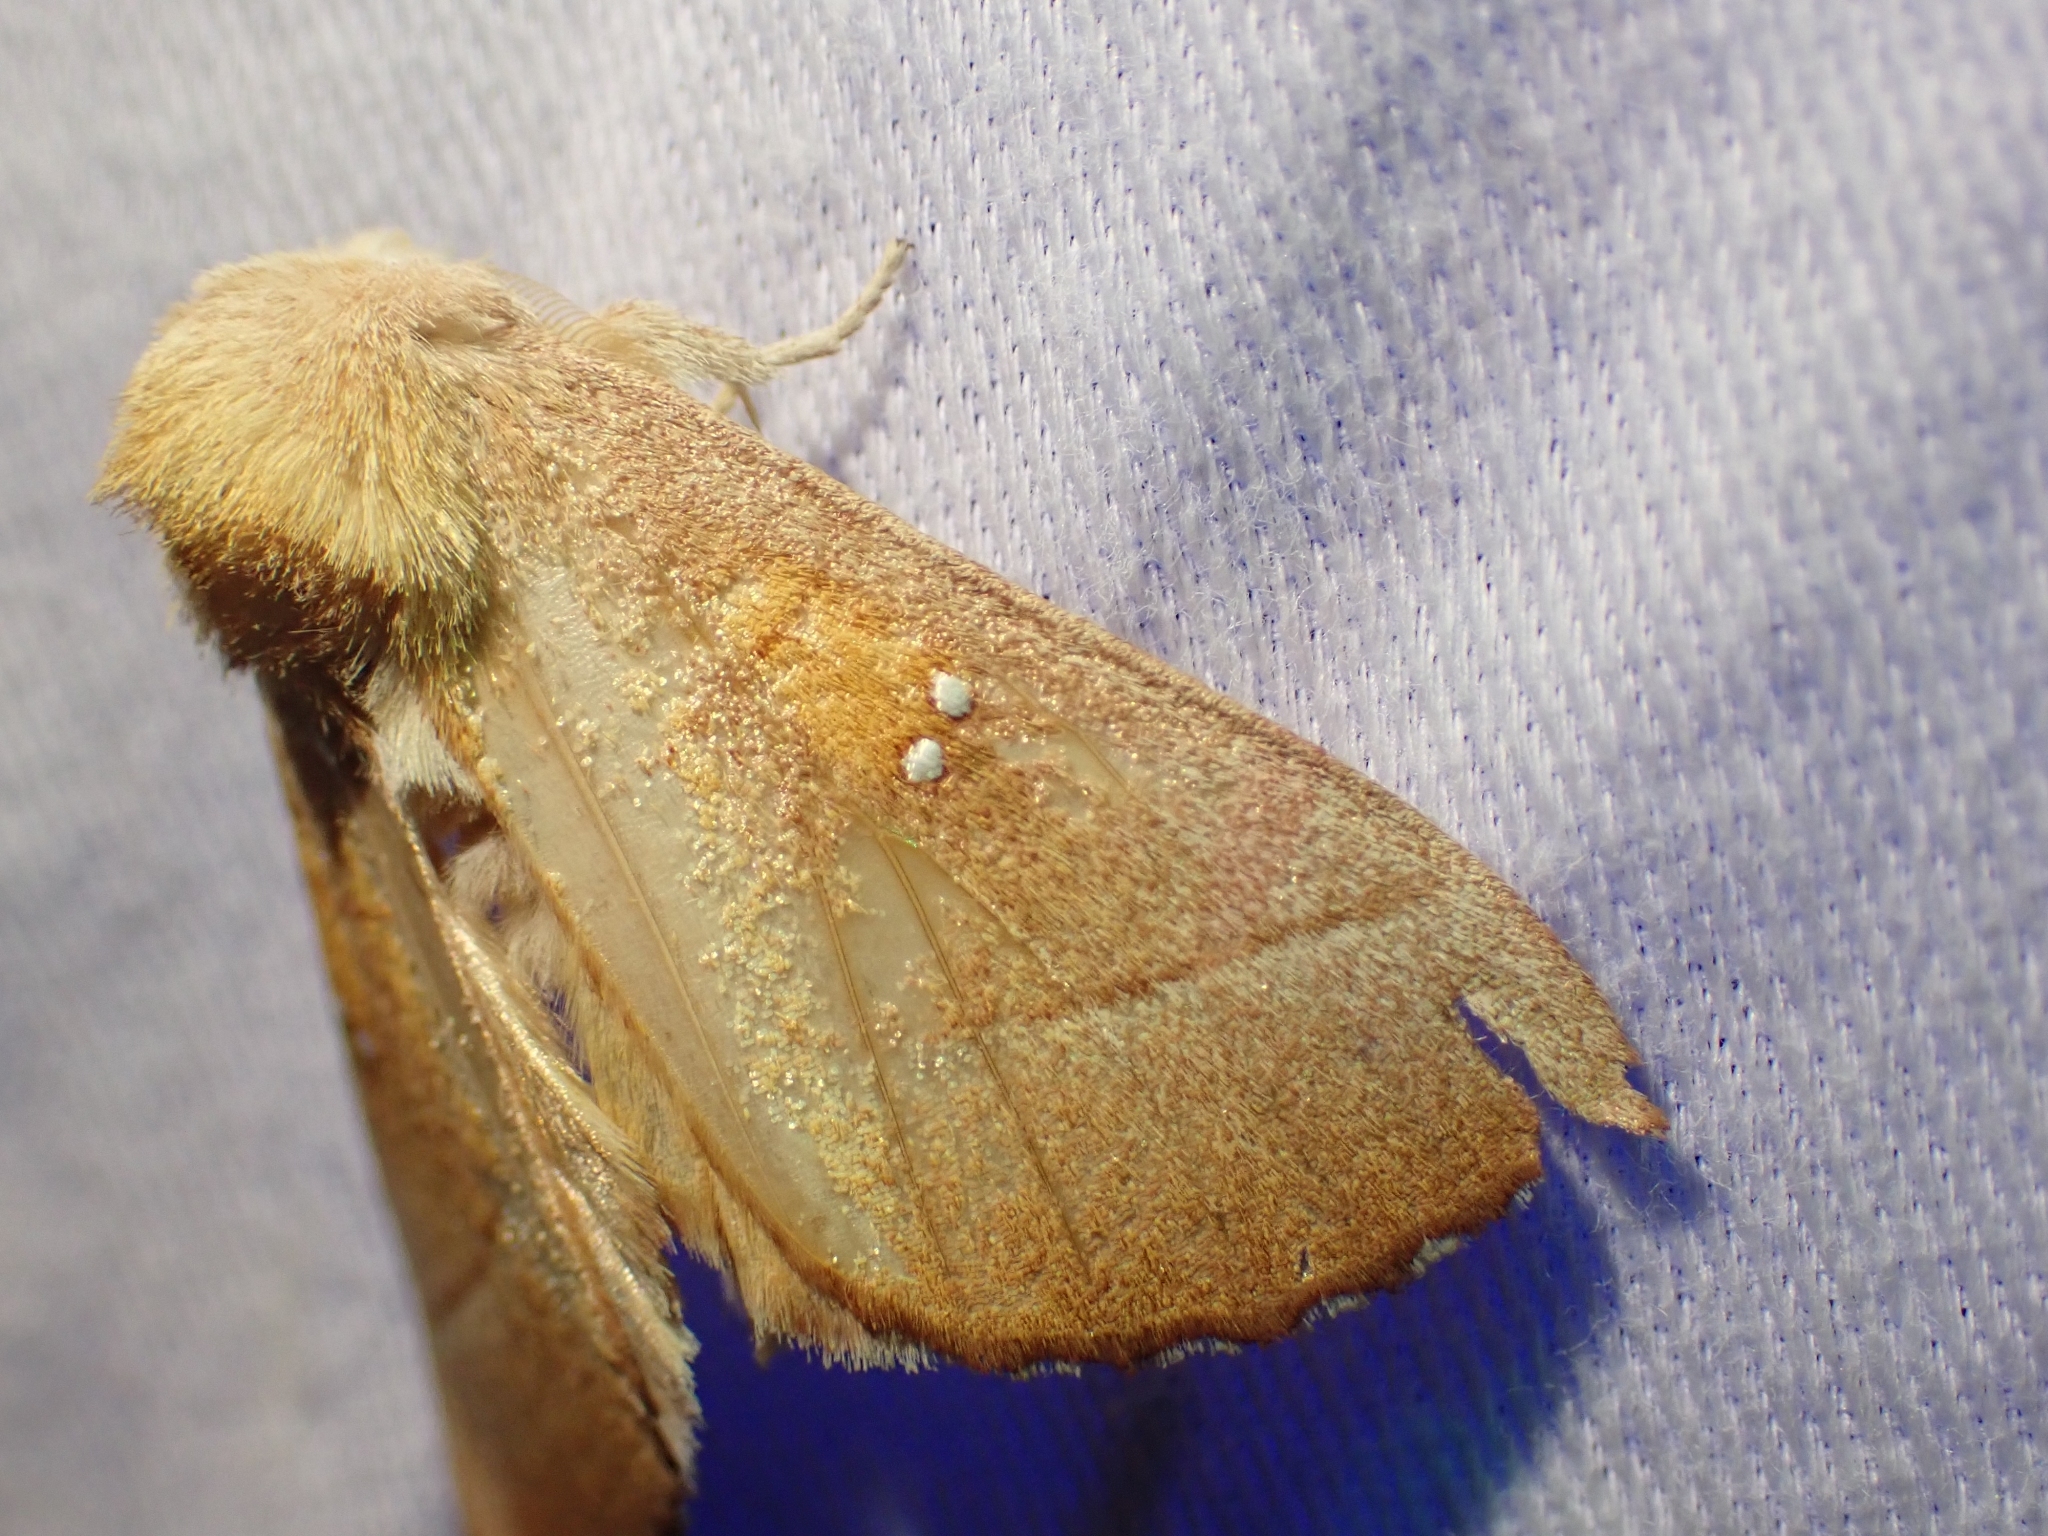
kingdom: Animalia
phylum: Arthropoda
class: Insecta
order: Lepidoptera
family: Notodontidae
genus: Nadata
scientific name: Nadata gibbosa
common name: White-dotted prominent
